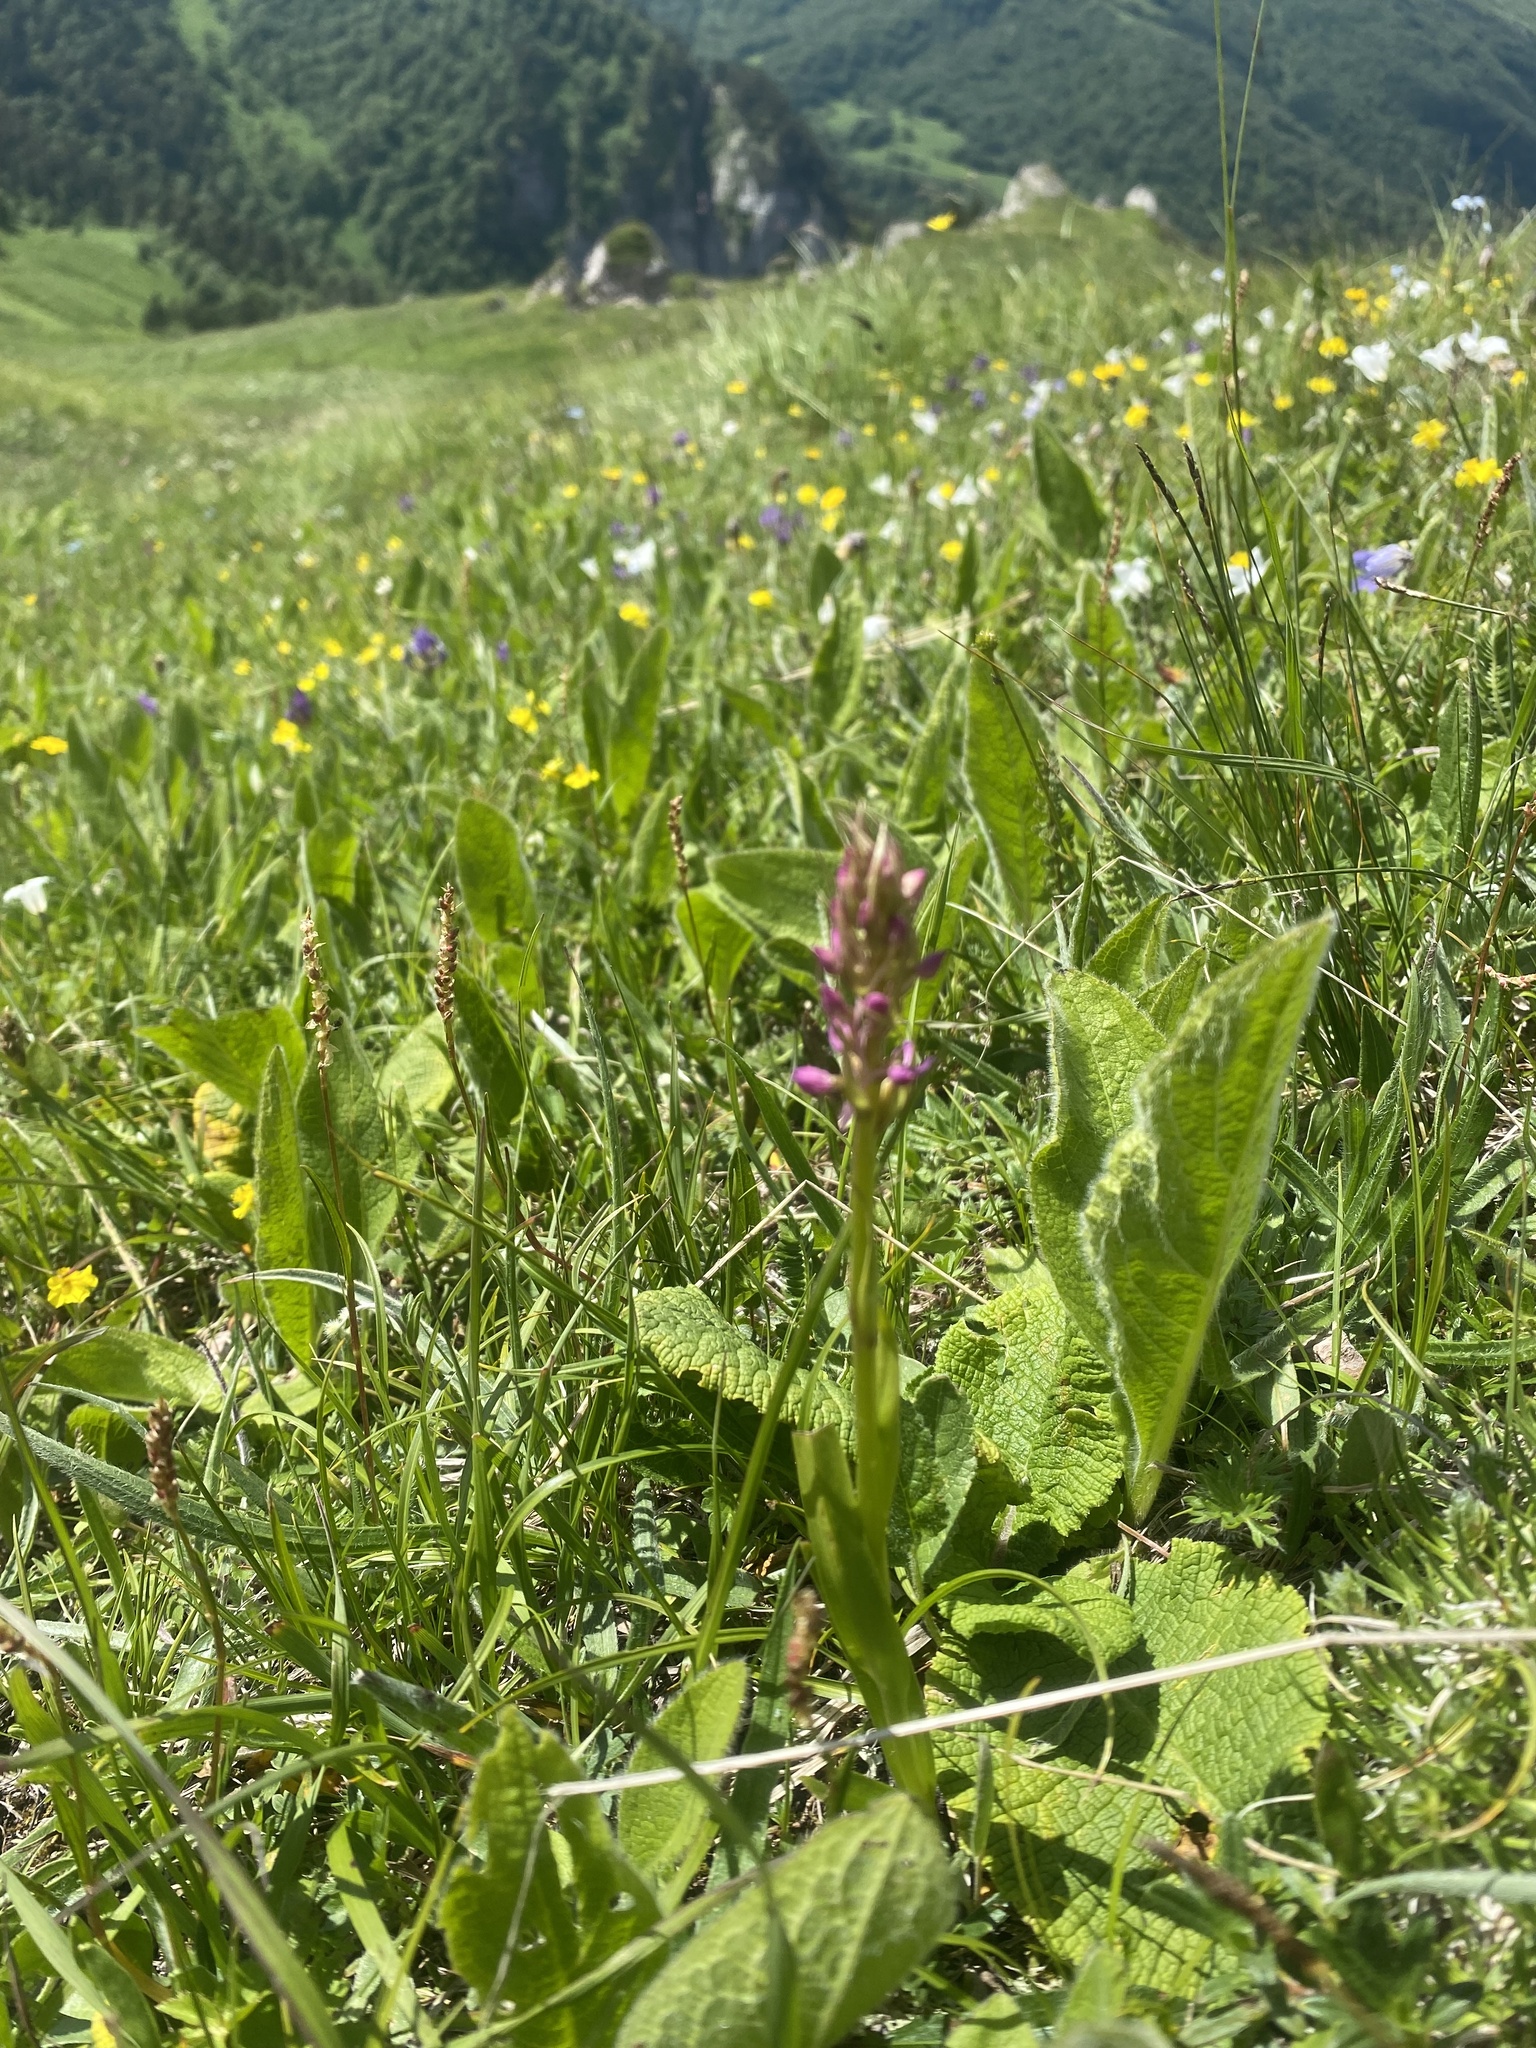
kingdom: Plantae
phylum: Tracheophyta
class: Liliopsida
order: Asparagales
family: Orchidaceae
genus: Gymnadenia
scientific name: Gymnadenia conopsea
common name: Fragrant orchid
